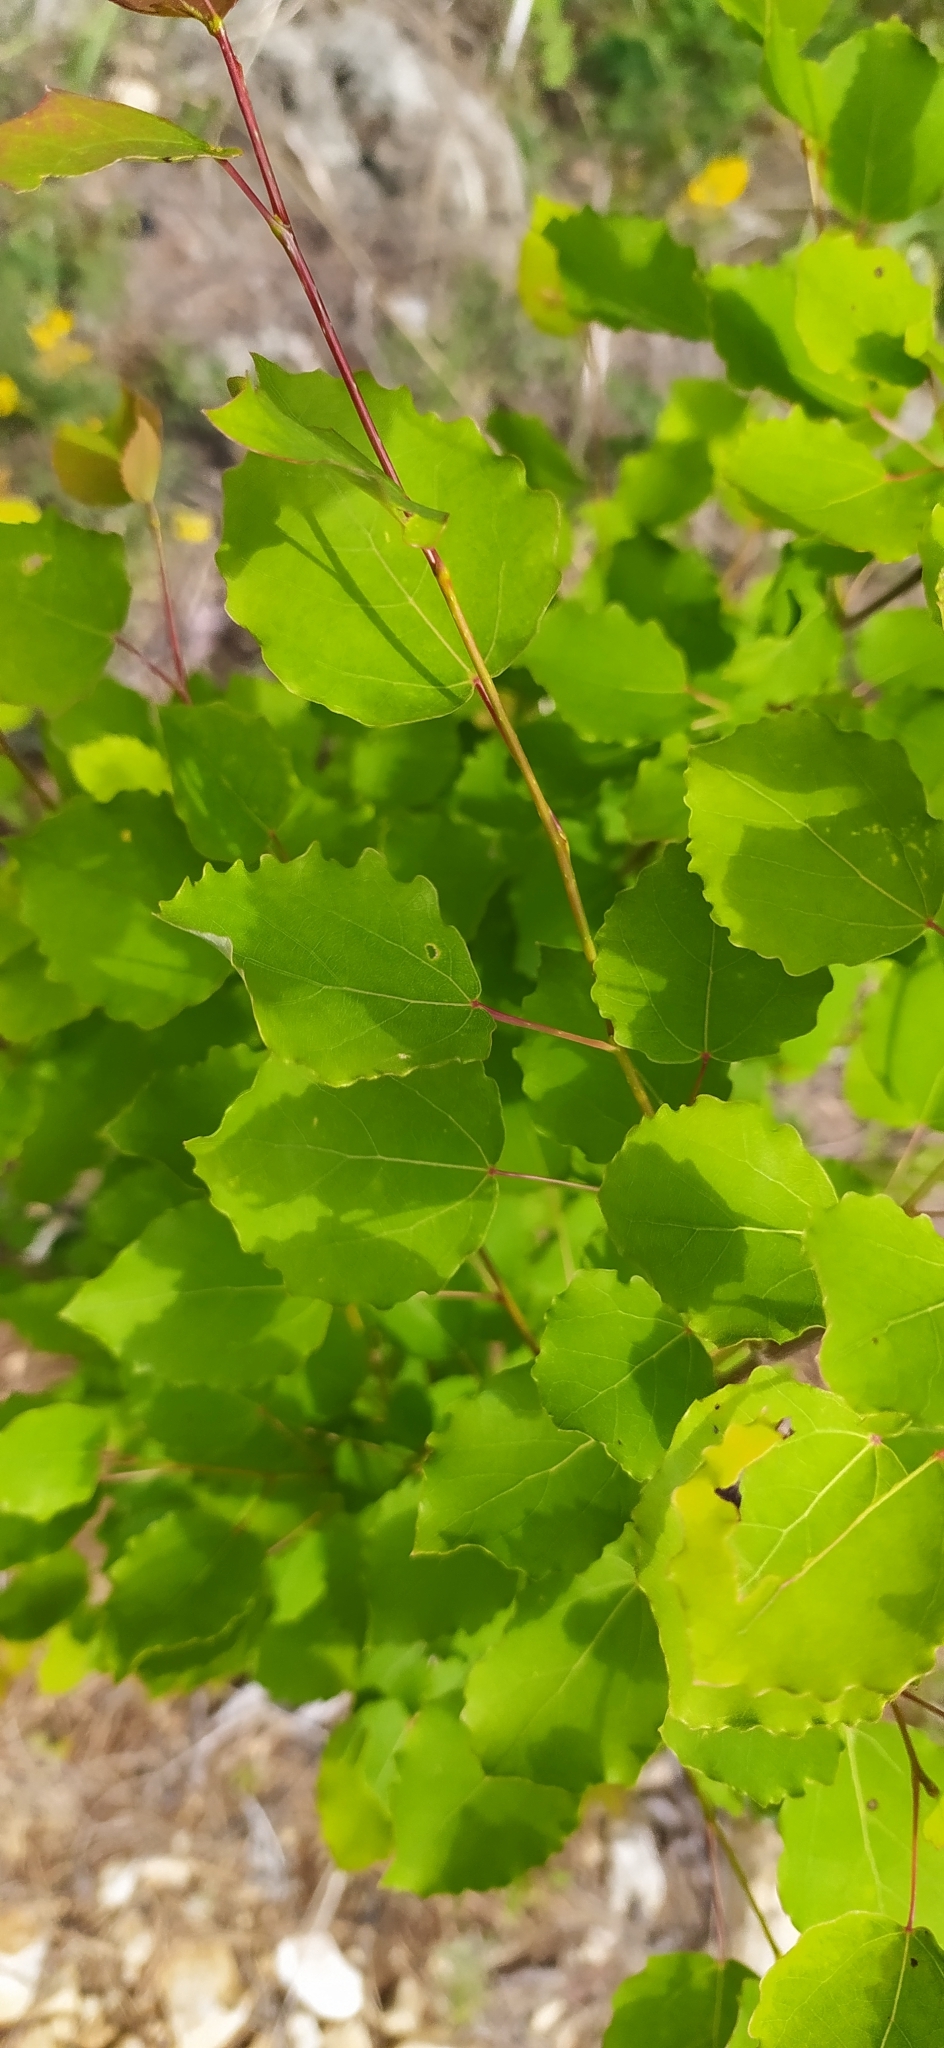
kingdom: Plantae
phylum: Tracheophyta
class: Magnoliopsida
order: Malpighiales
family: Salicaceae
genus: Populus
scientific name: Populus tremula
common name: European aspen
